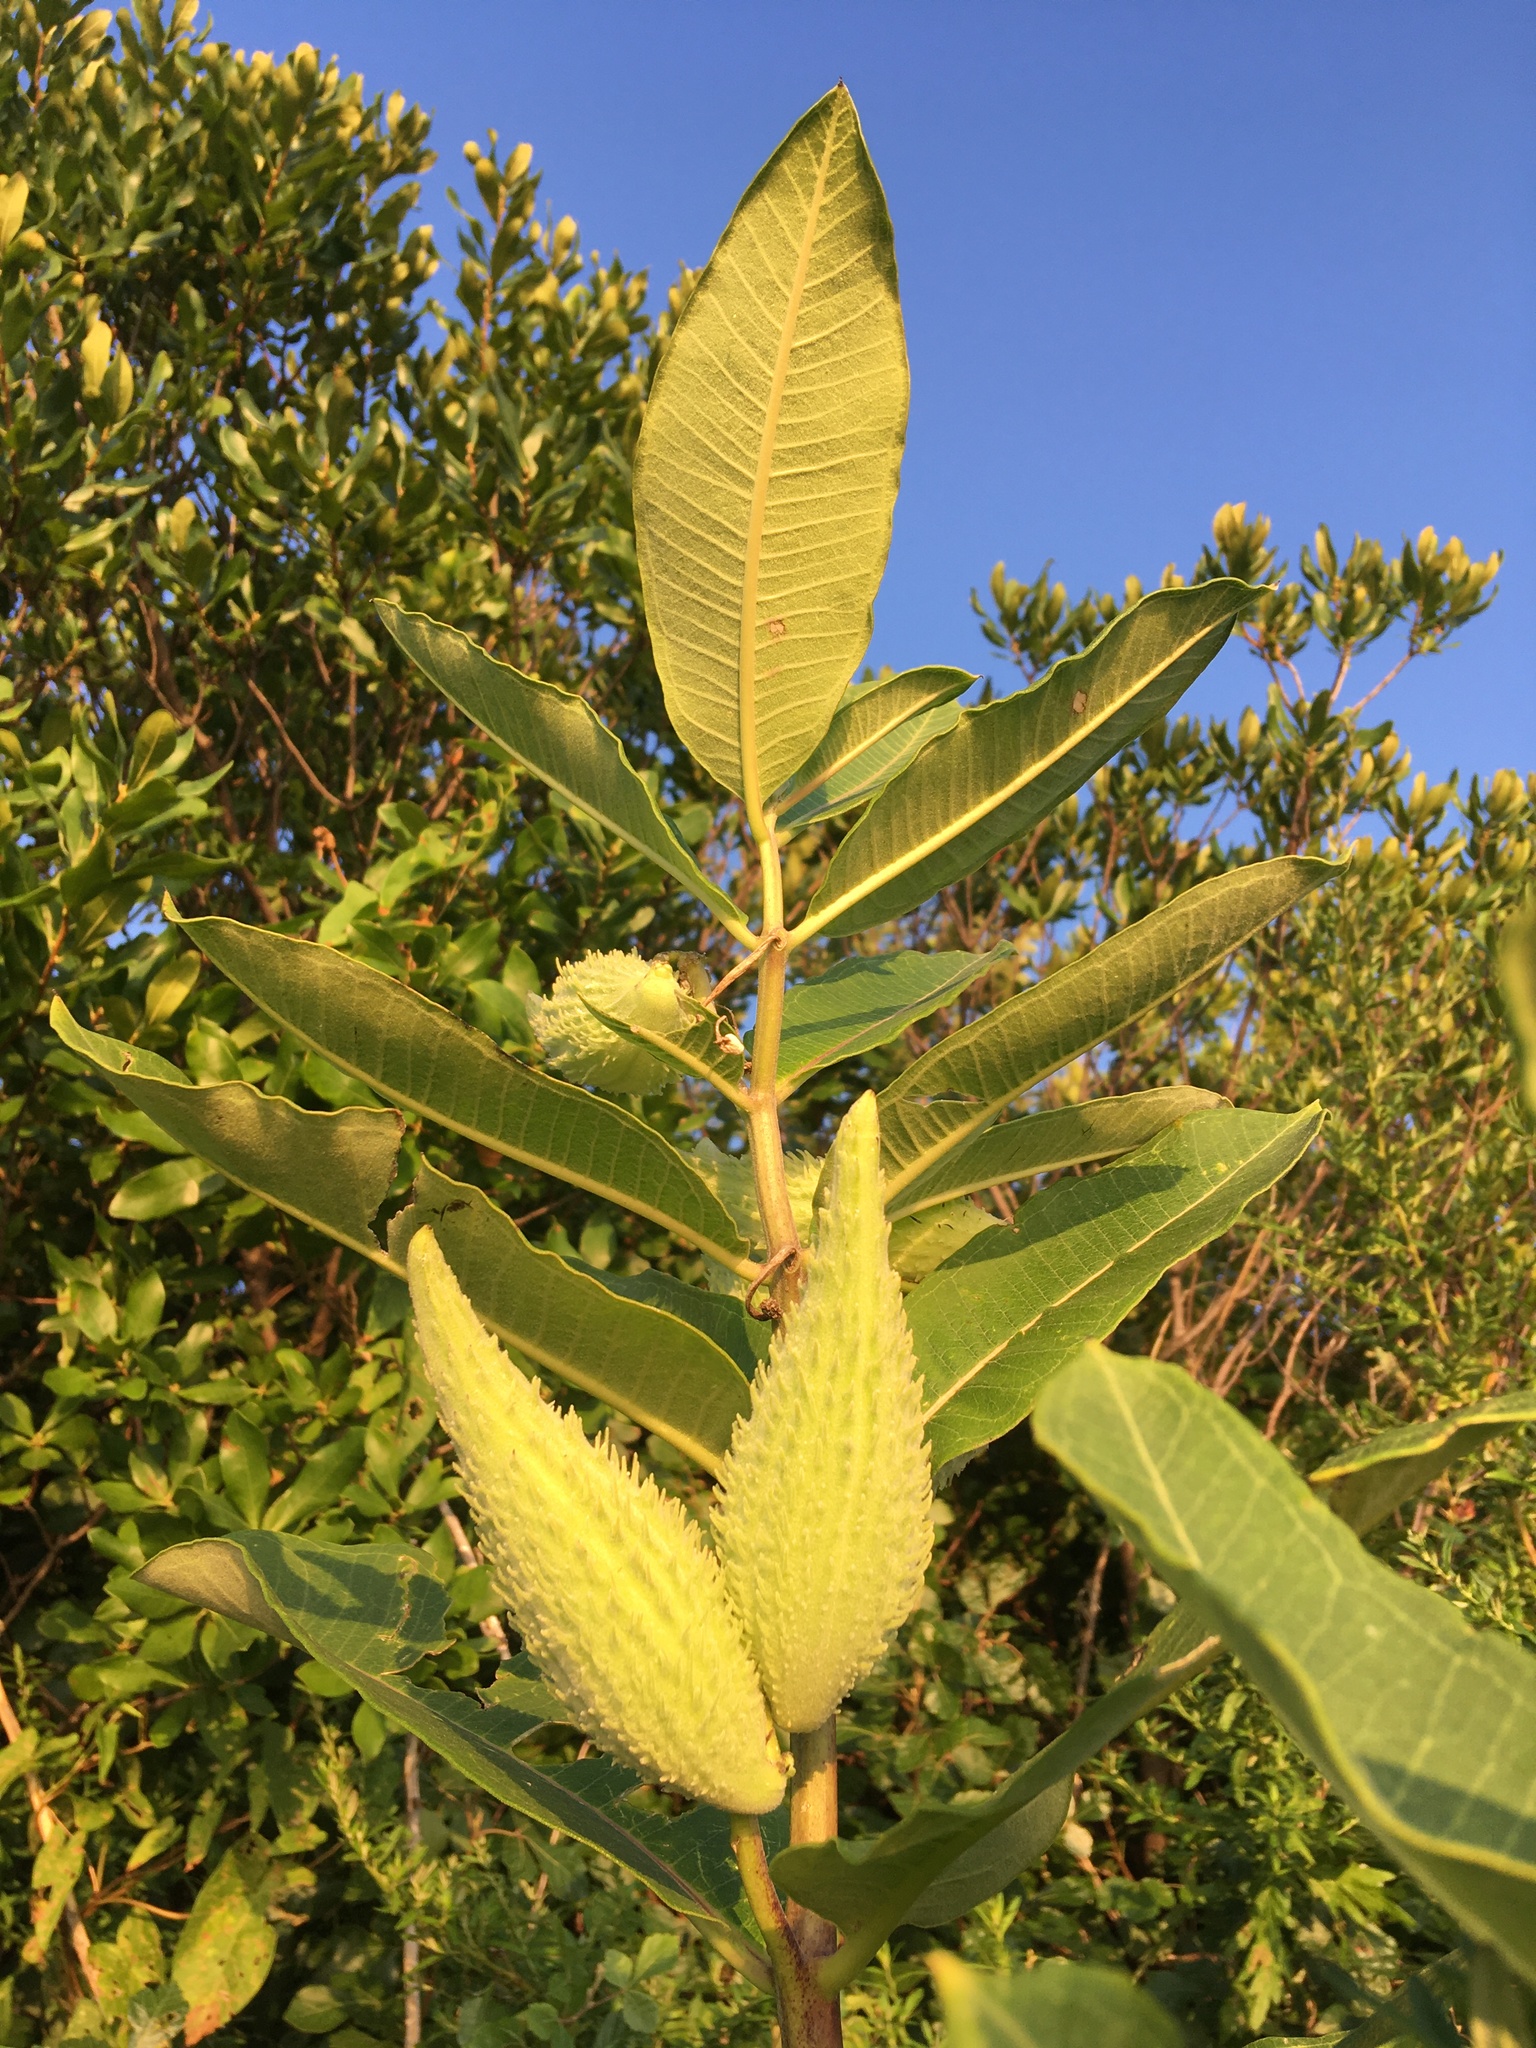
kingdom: Plantae
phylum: Tracheophyta
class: Magnoliopsida
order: Gentianales
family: Apocynaceae
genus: Asclepias
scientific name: Asclepias syriaca
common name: Common milkweed
